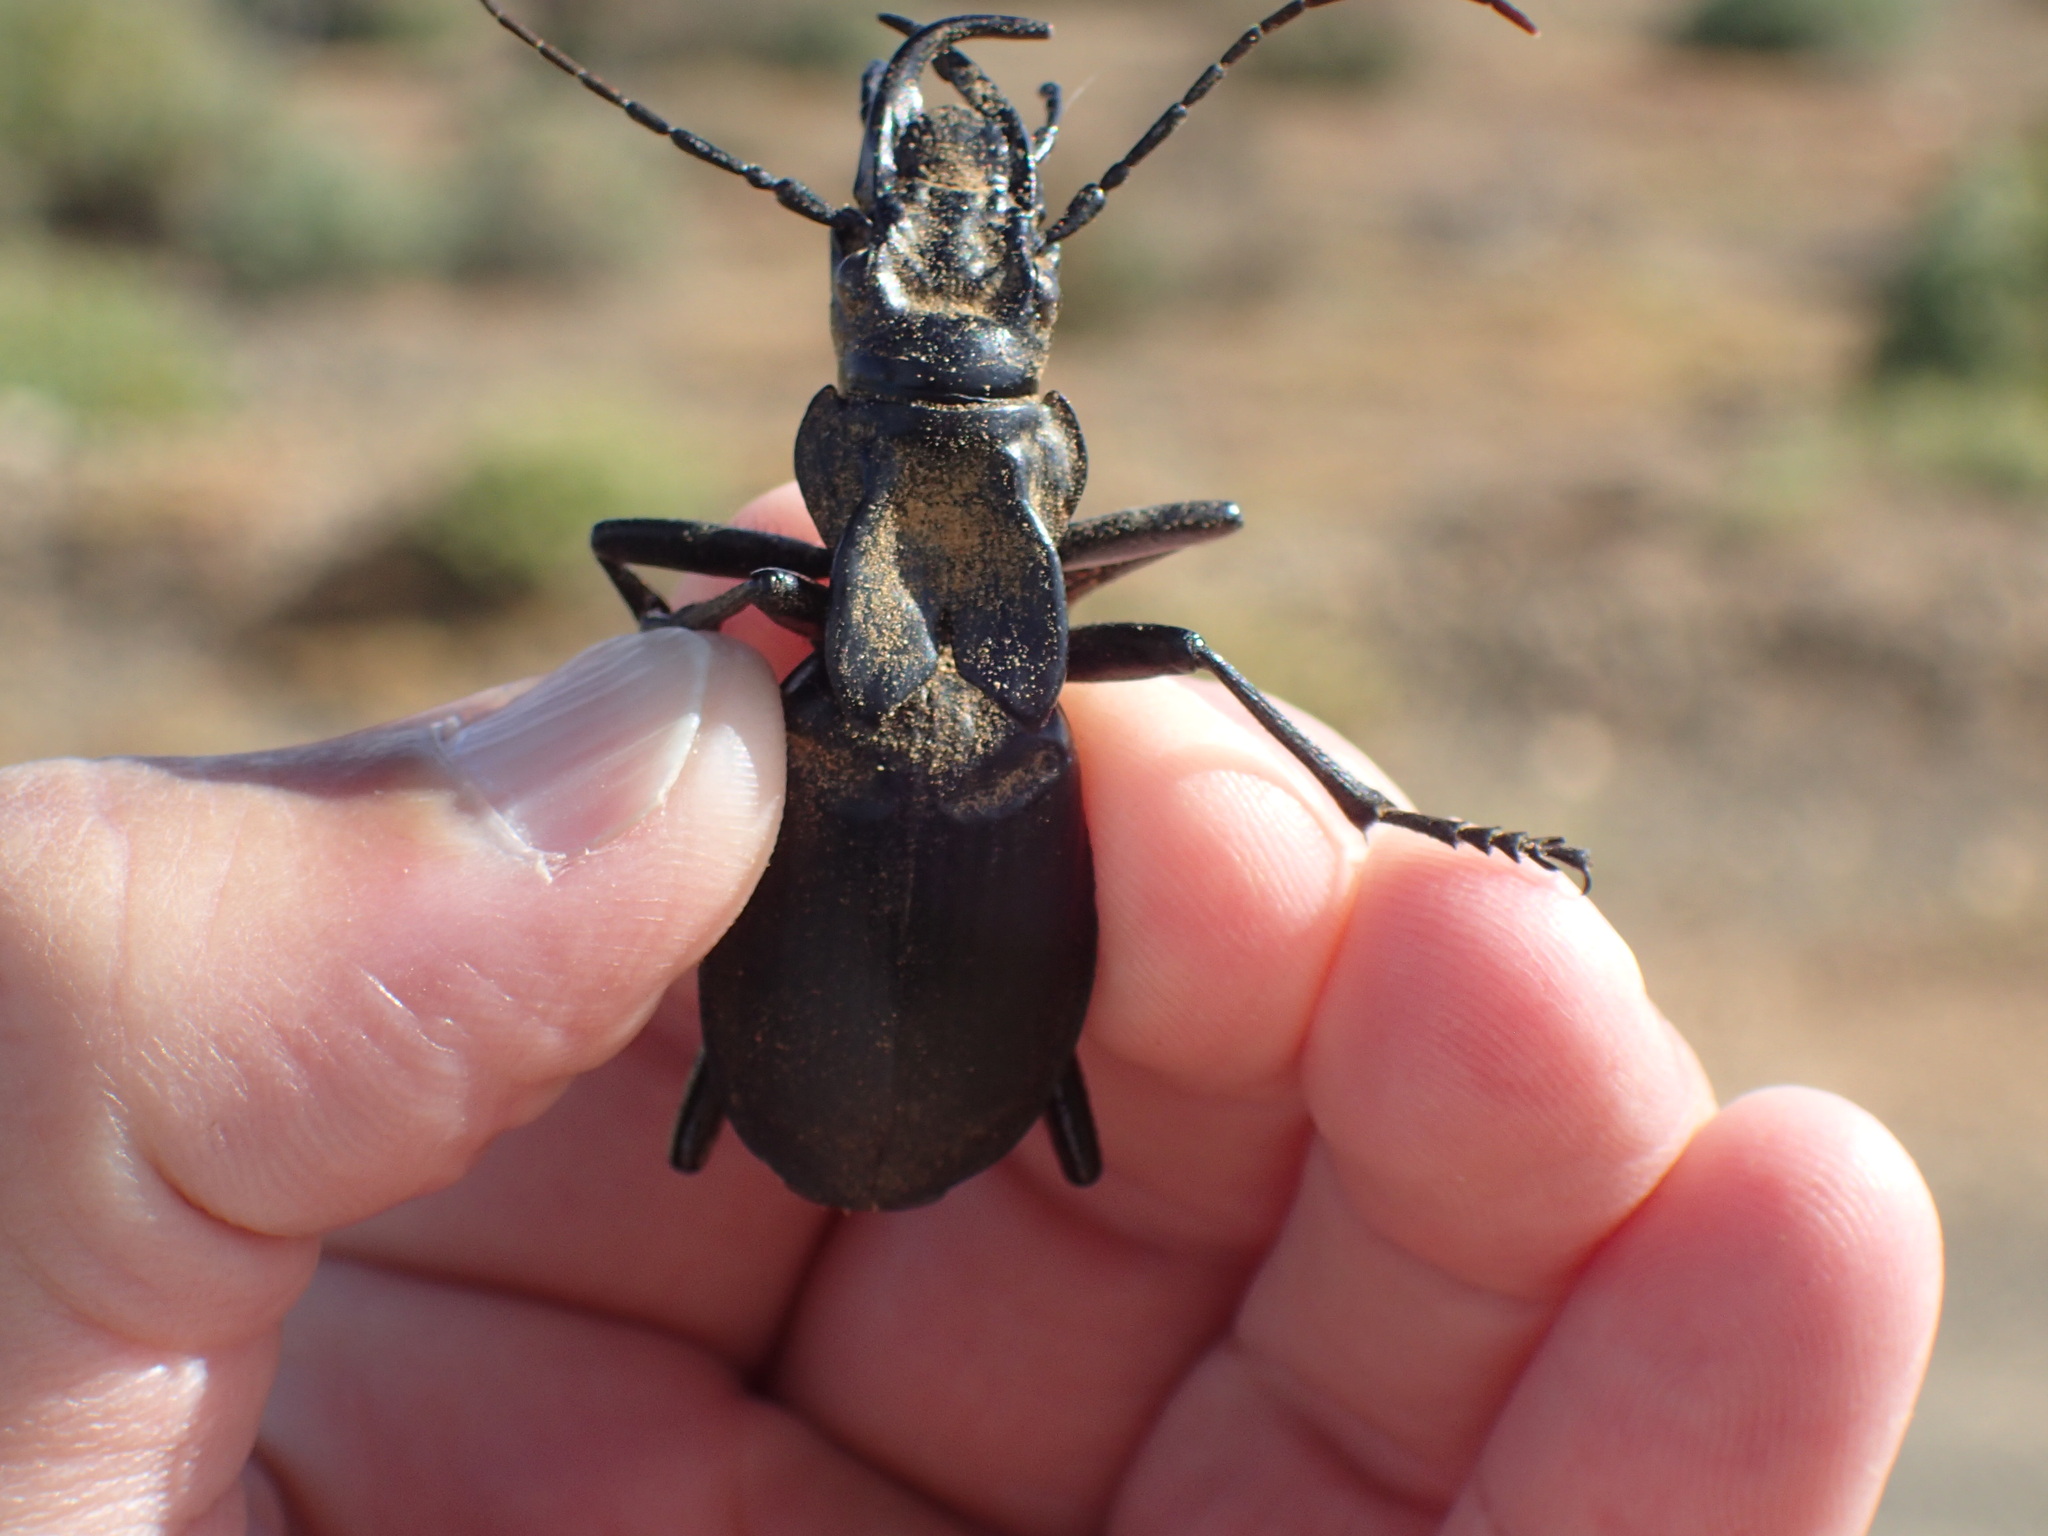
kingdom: Animalia
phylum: Arthropoda
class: Insecta
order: Coleoptera
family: Carabidae
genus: Anthia
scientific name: Anthia maxillosa
